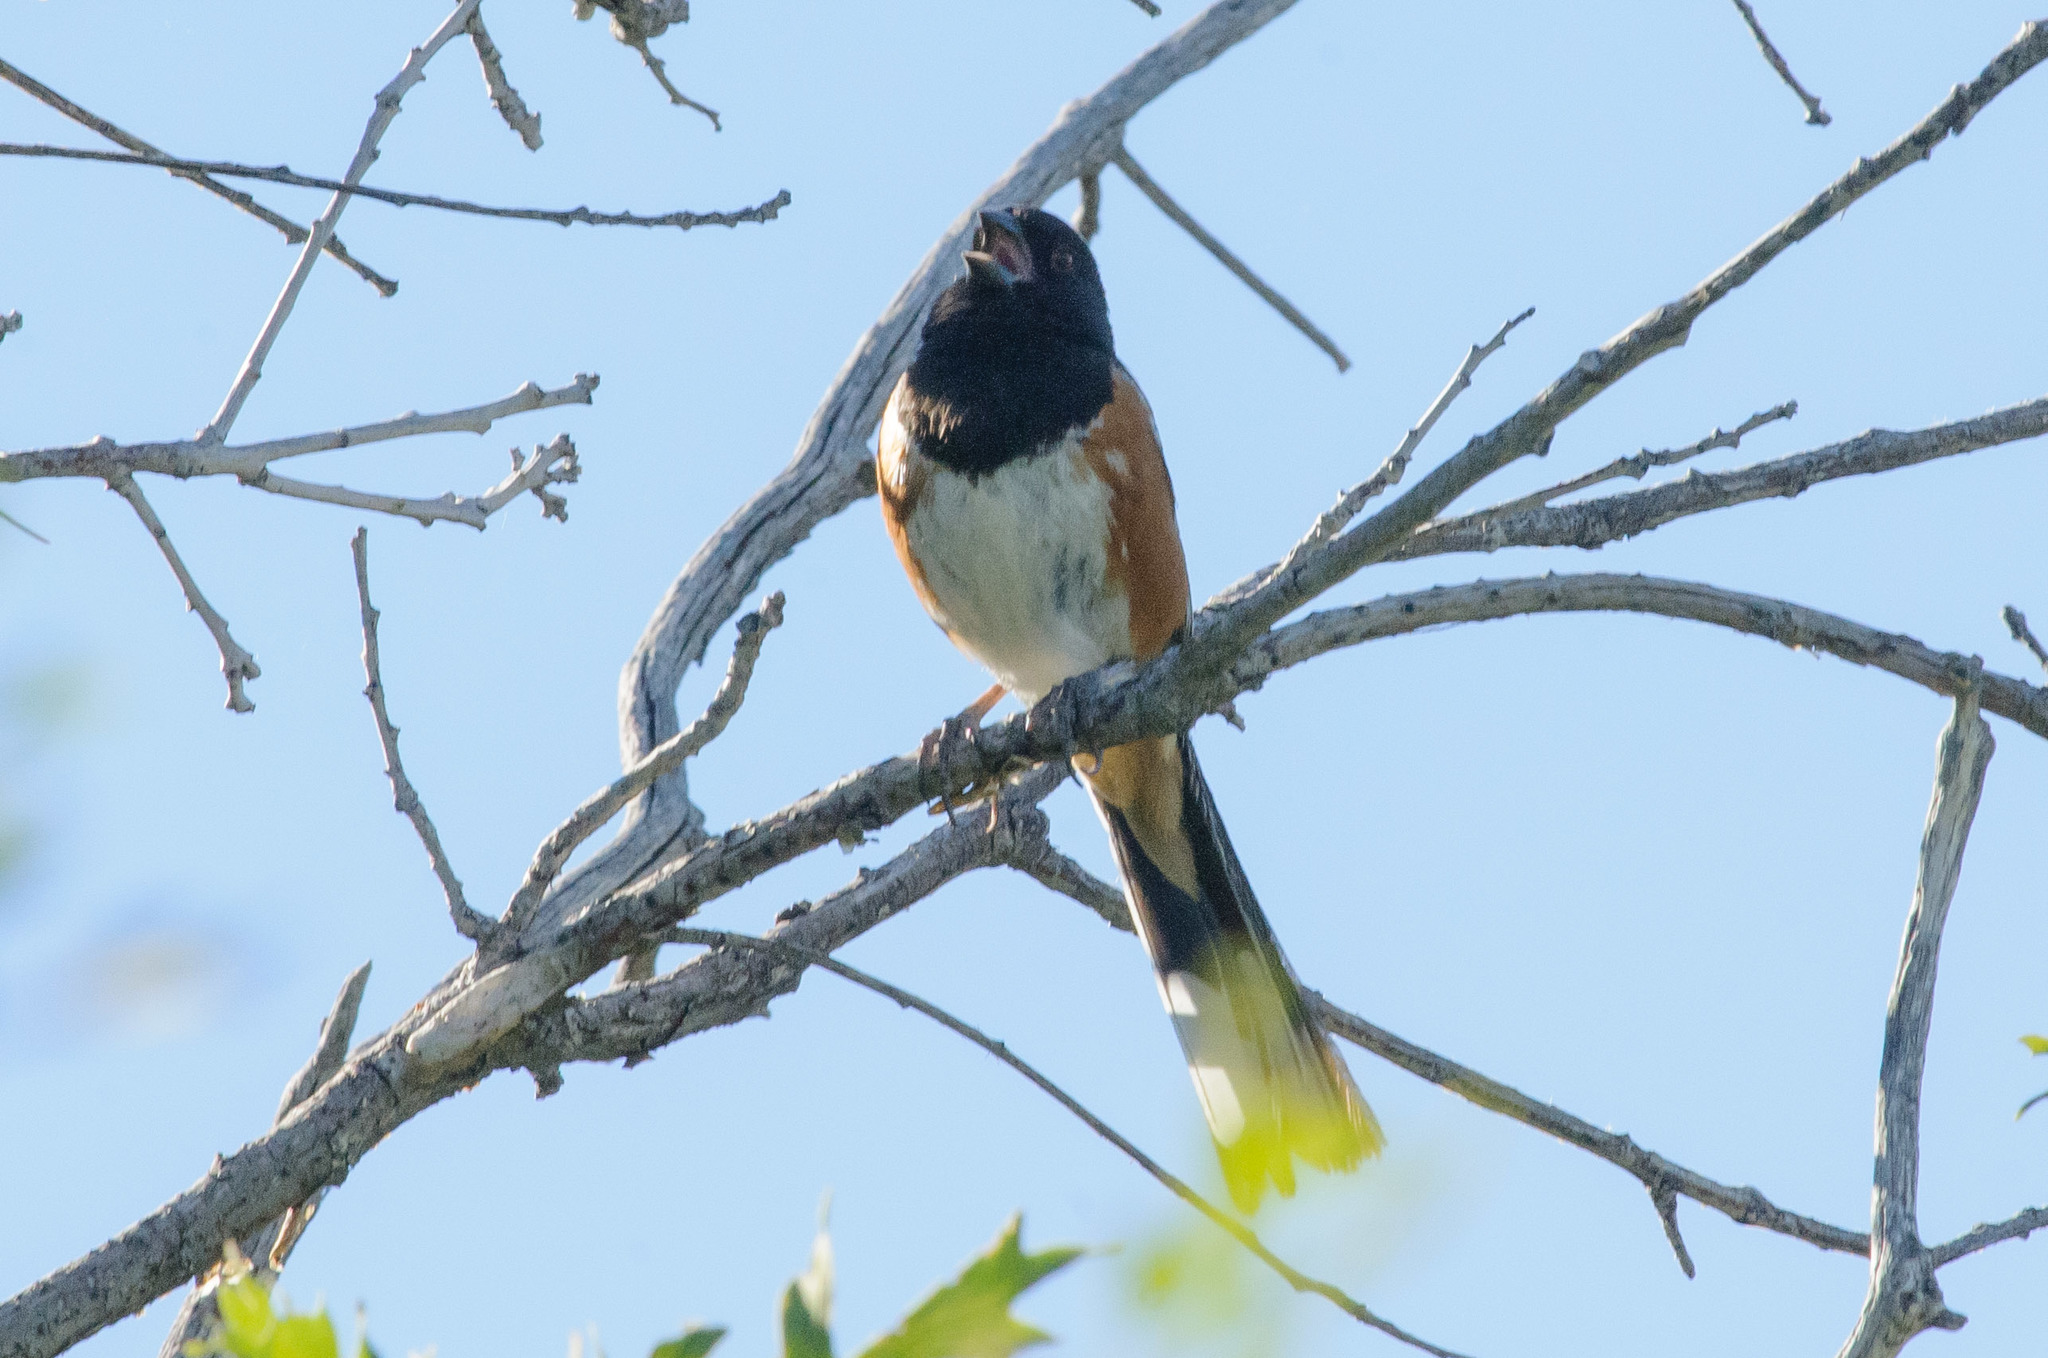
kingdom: Animalia
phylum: Chordata
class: Aves
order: Passeriformes
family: Passerellidae
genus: Pipilo
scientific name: Pipilo maculatus
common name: Spotted towhee
